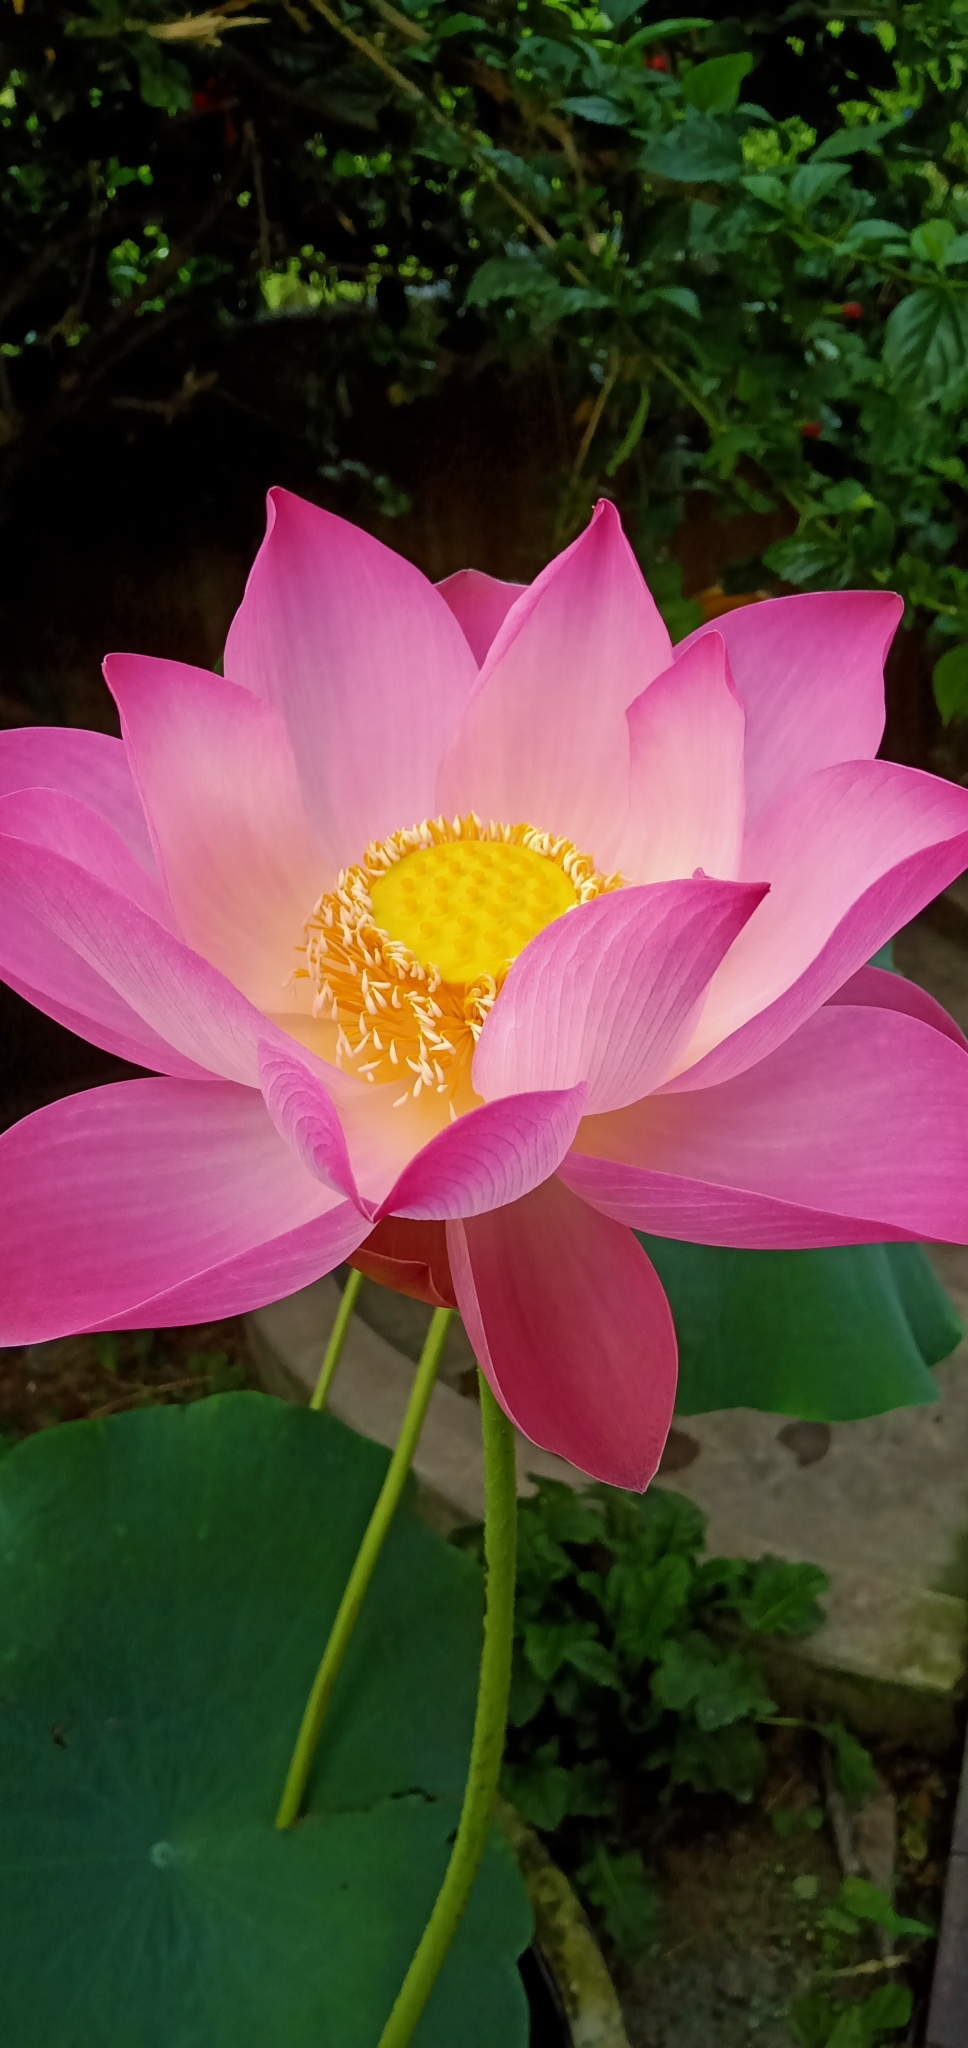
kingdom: Plantae
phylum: Tracheophyta
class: Magnoliopsida
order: Proteales
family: Nelumbonaceae
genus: Nelumbo
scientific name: Nelumbo nucifera
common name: Sacred lotus
